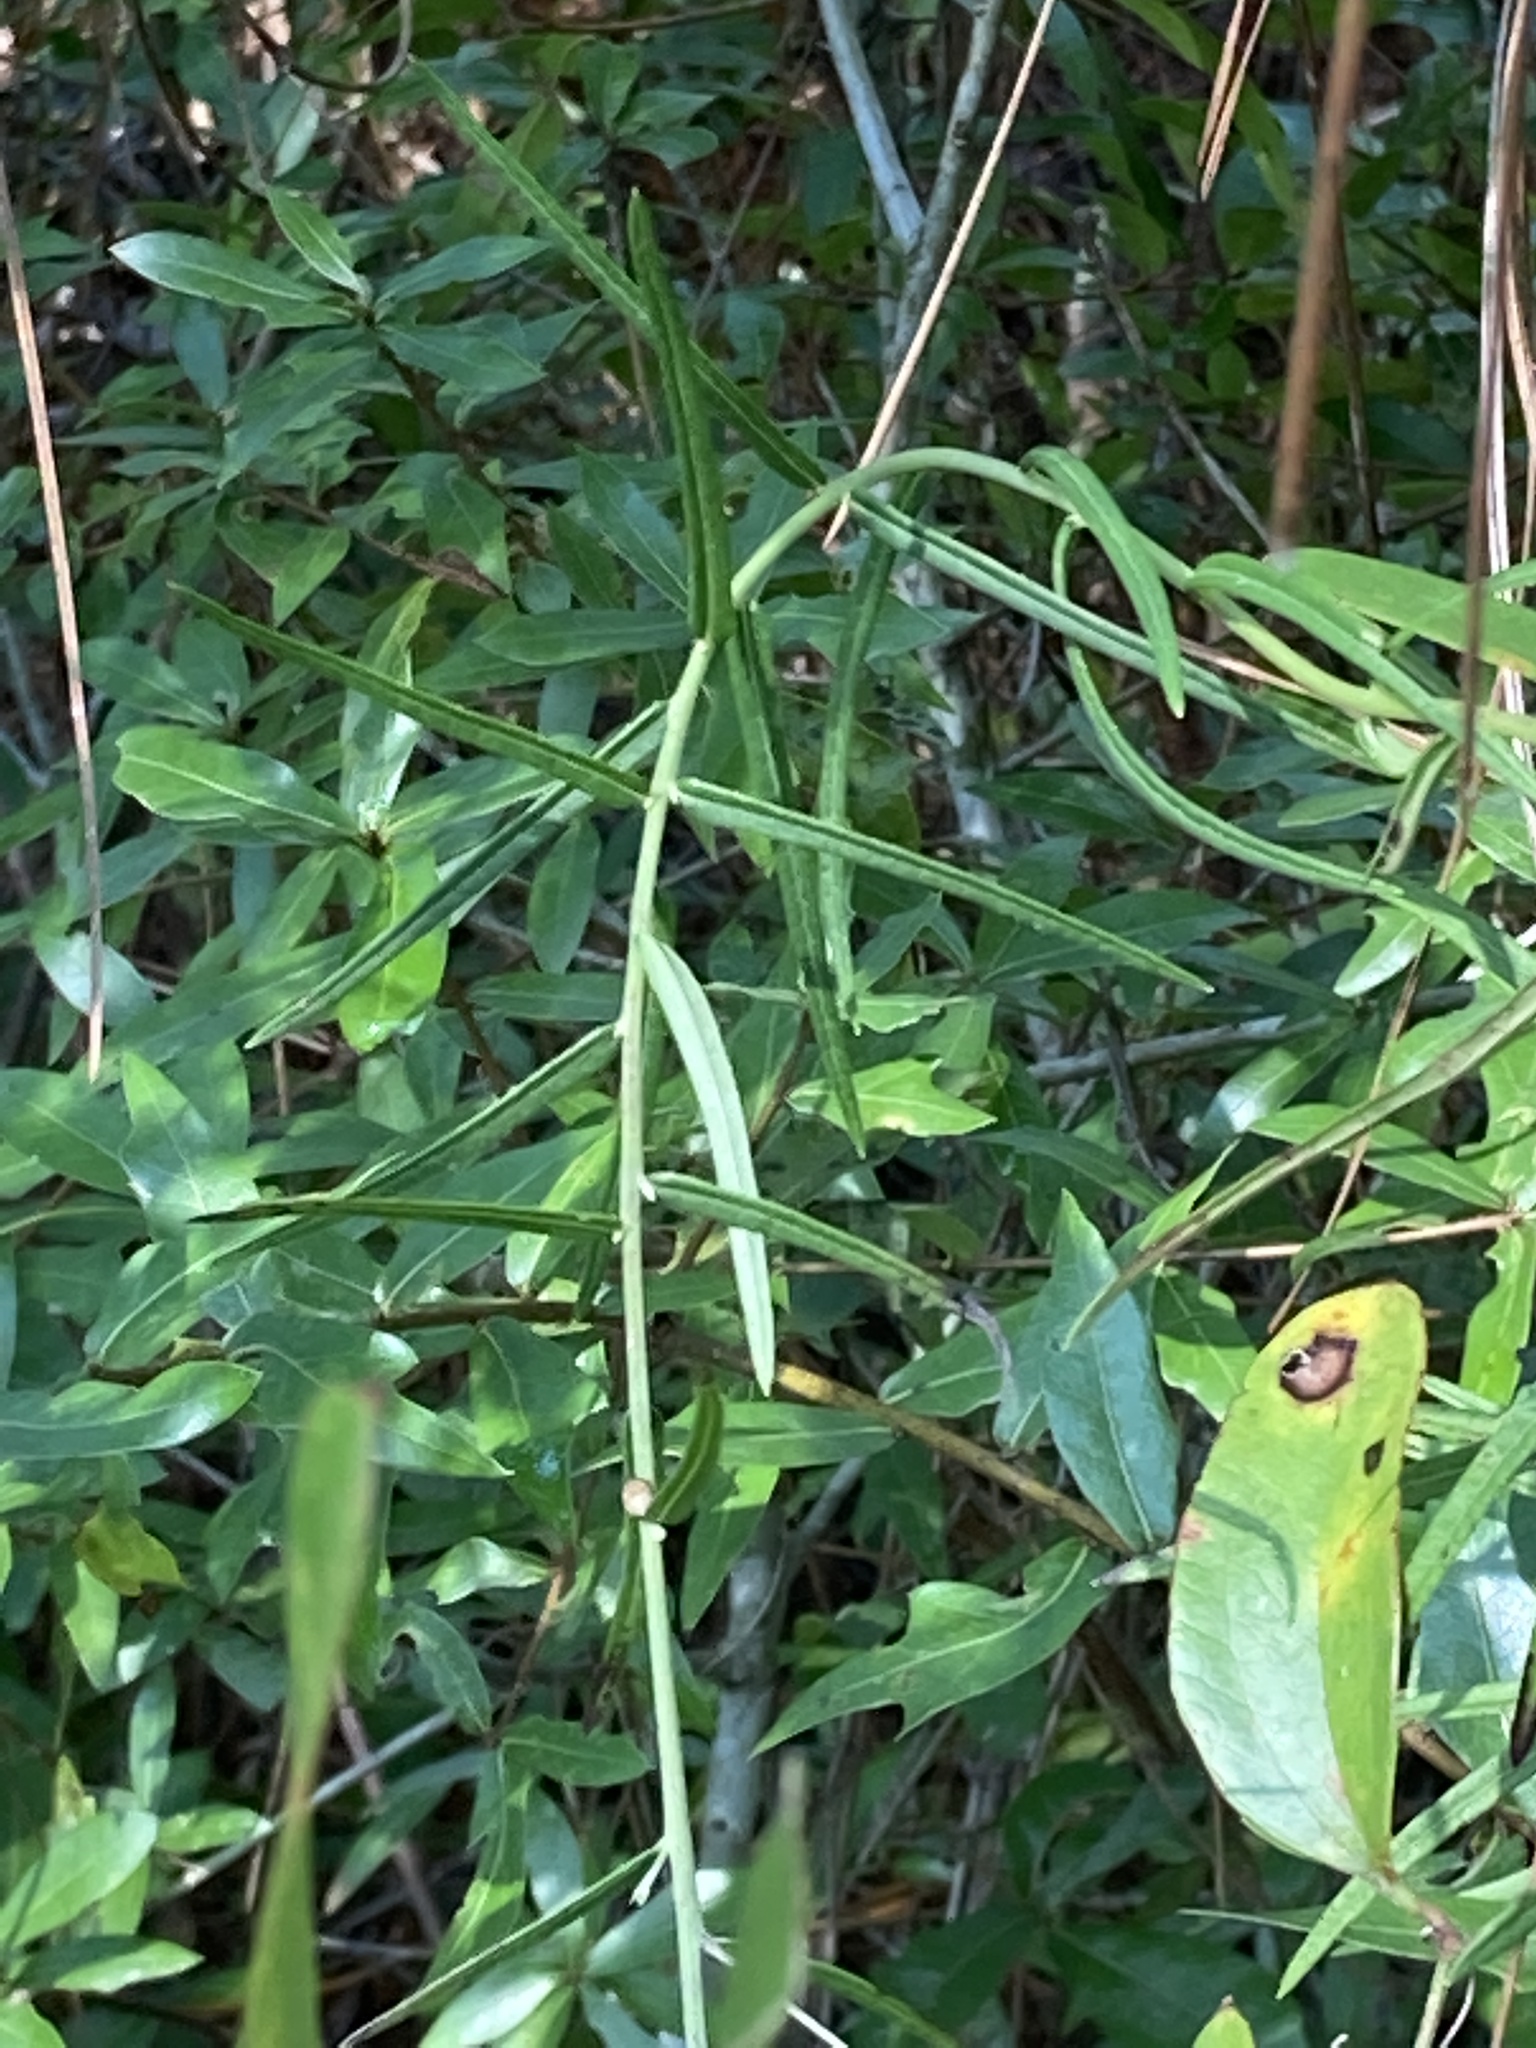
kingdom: Plantae
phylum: Tracheophyta
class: Magnoliopsida
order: Asterales
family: Asteraceae
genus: Vernonia
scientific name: Vernonia angustifolia
